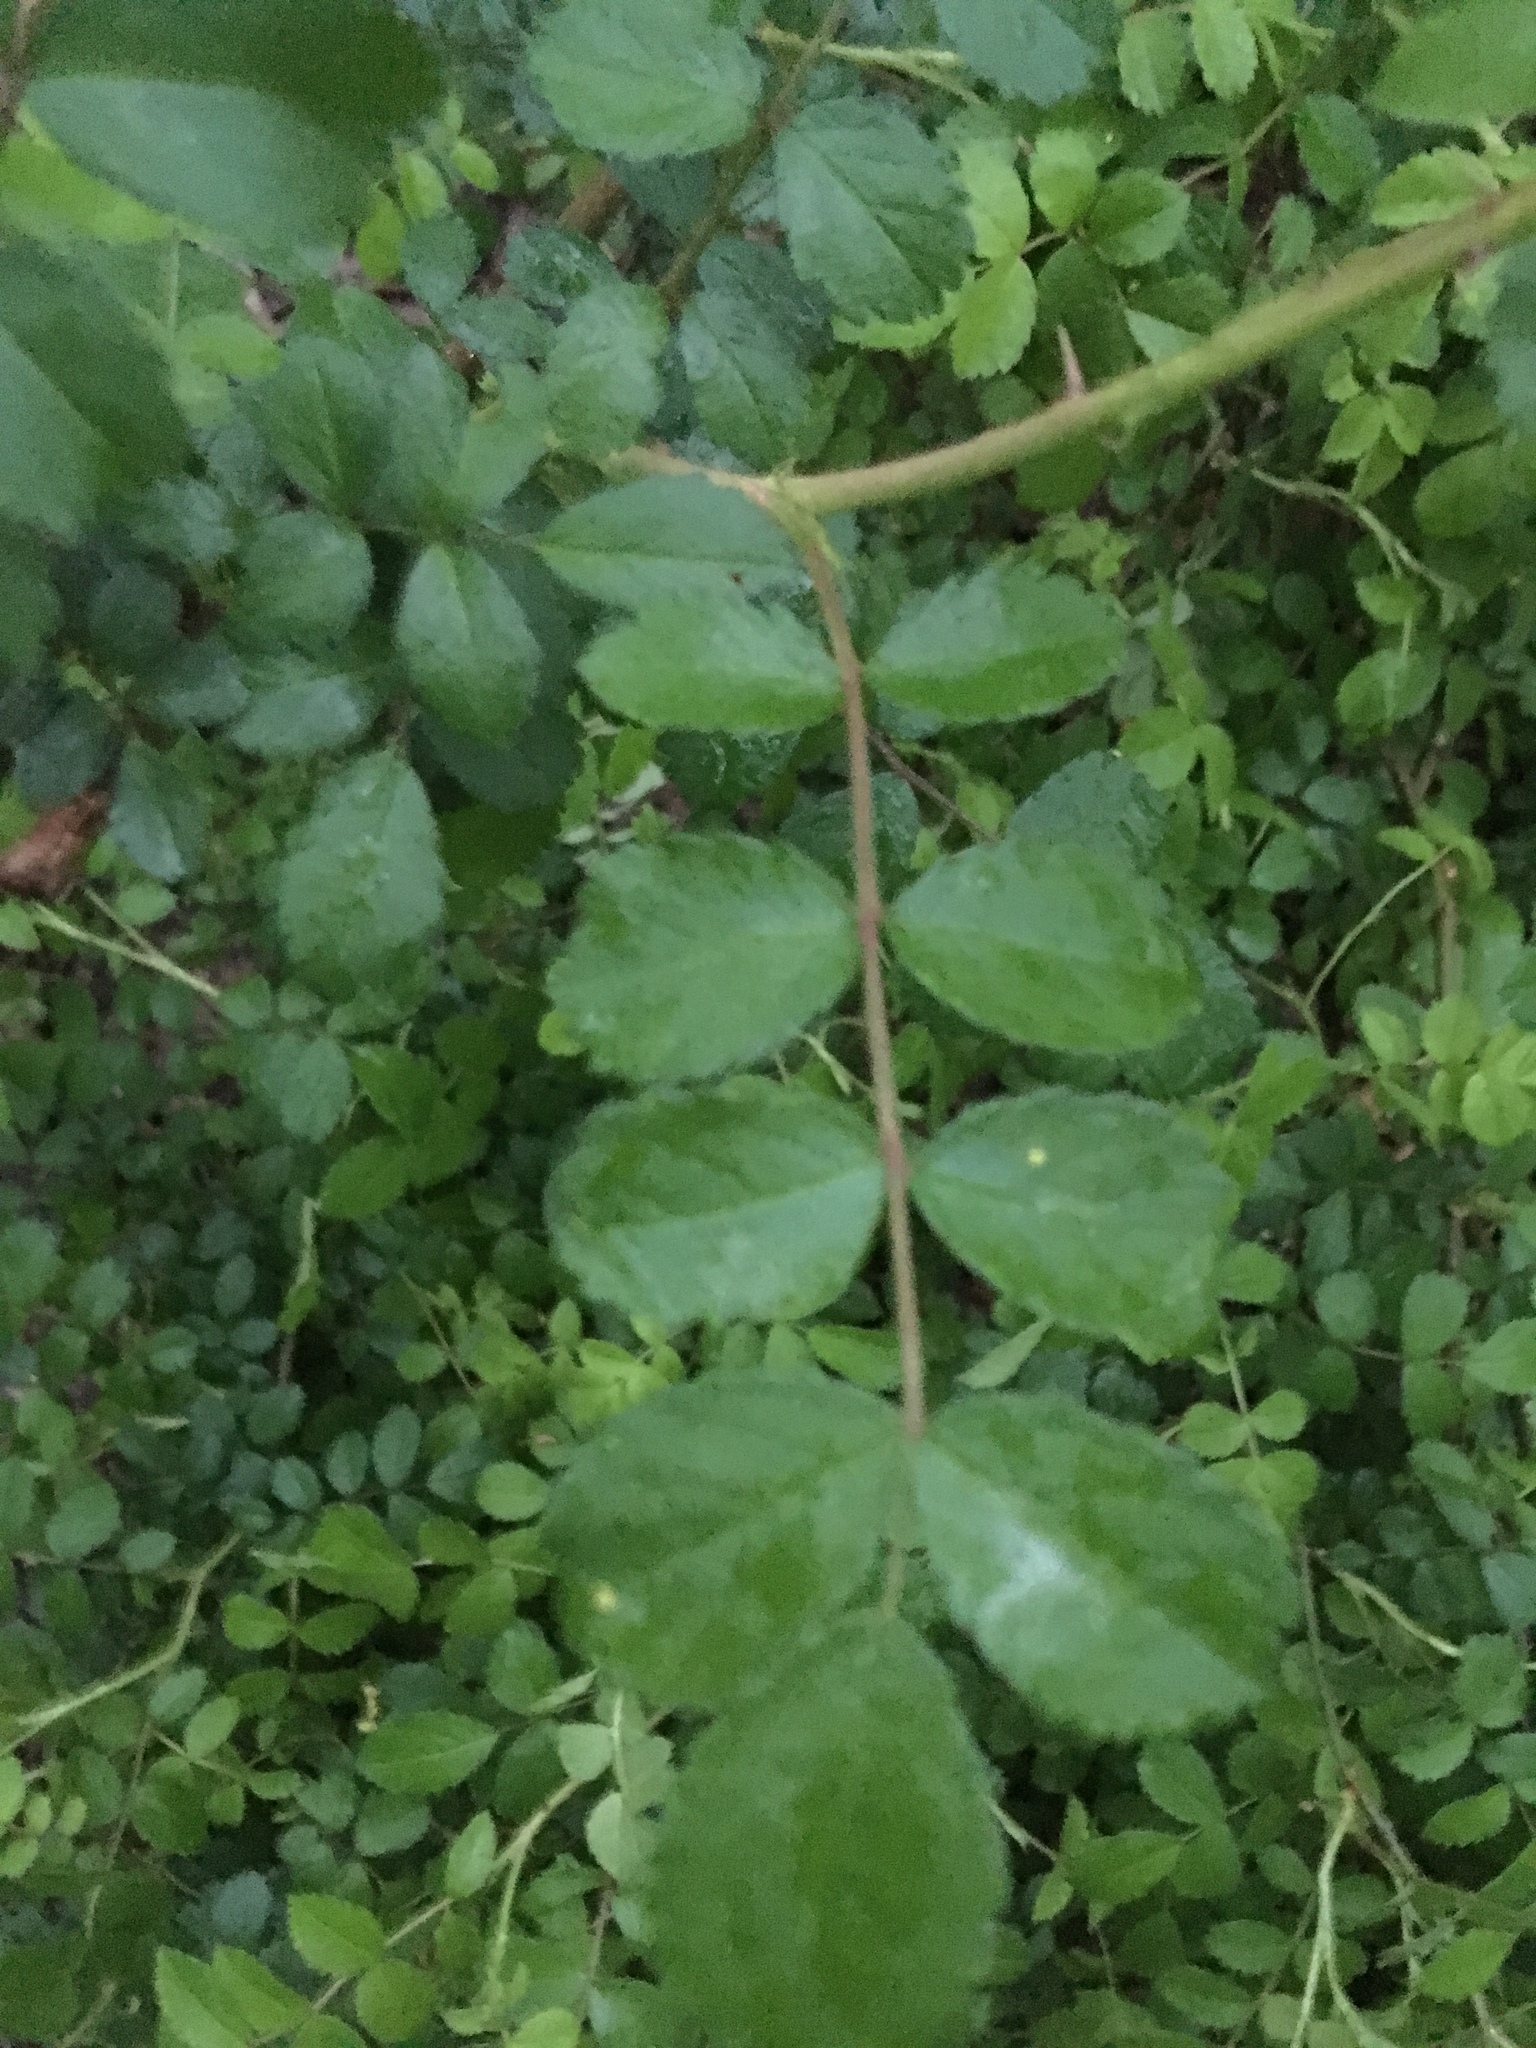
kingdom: Plantae
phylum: Tracheophyta
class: Magnoliopsida
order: Rosales
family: Rosaceae
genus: Rosa
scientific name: Rosa multiflora
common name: Multiflora rose
